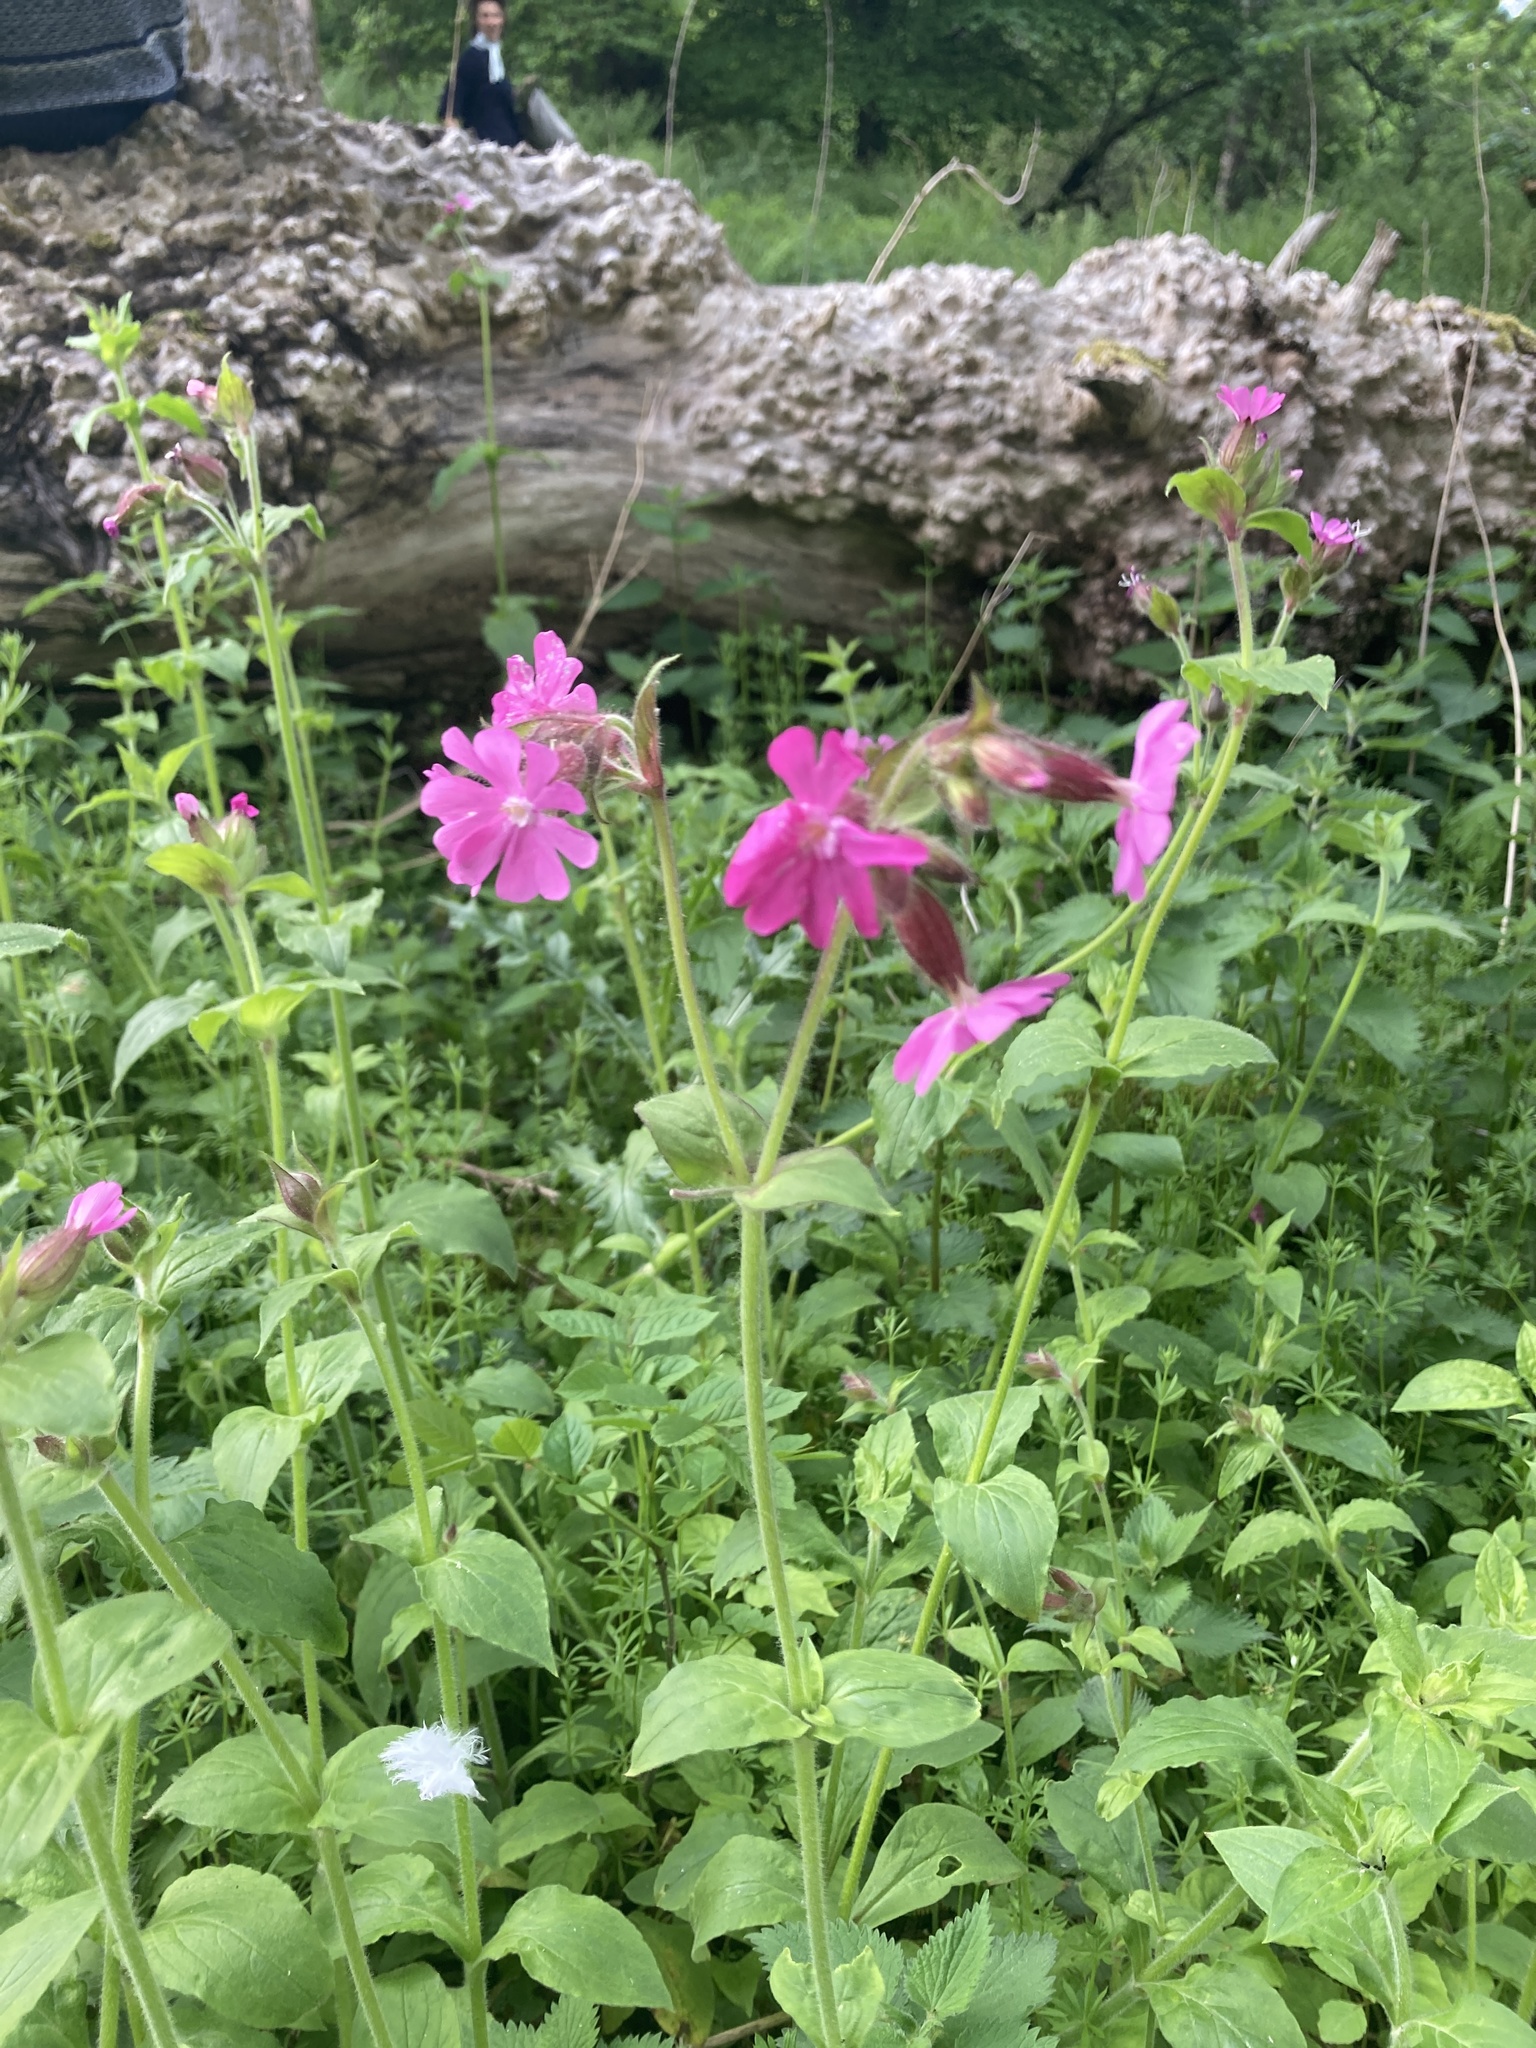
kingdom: Plantae
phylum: Tracheophyta
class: Magnoliopsida
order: Caryophyllales
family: Caryophyllaceae
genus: Silene
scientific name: Silene dioica
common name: Red campion
